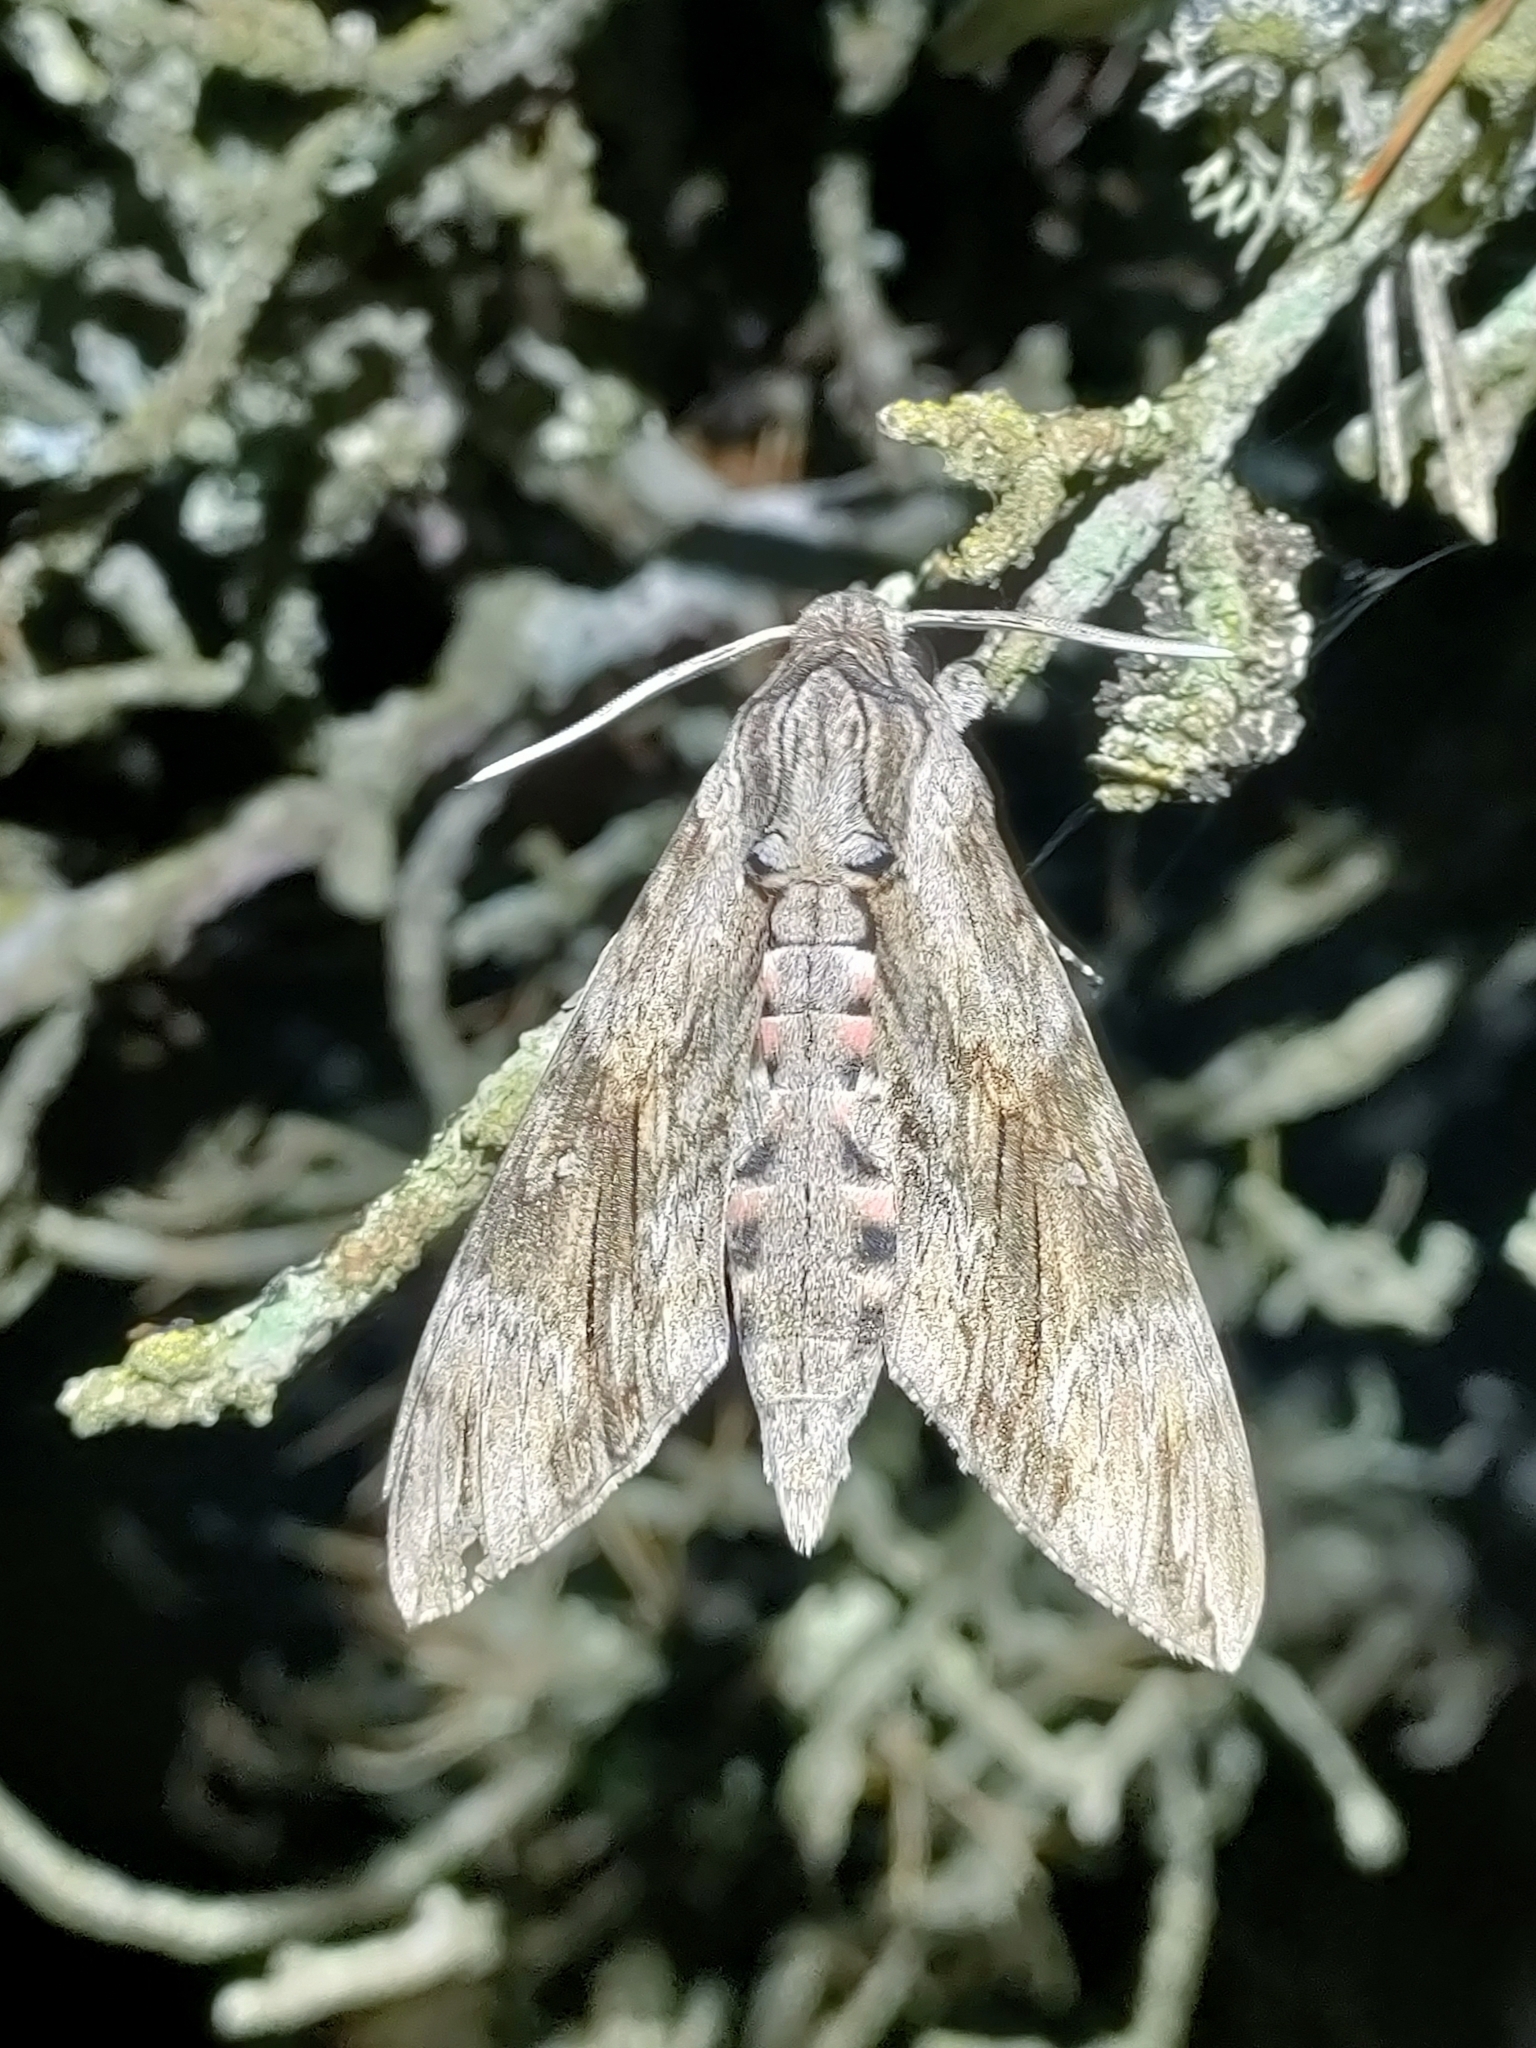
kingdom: Animalia
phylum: Arthropoda
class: Insecta
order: Lepidoptera
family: Sphingidae
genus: Agrius
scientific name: Agrius convolvuli
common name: Convolvulus hawkmoth
